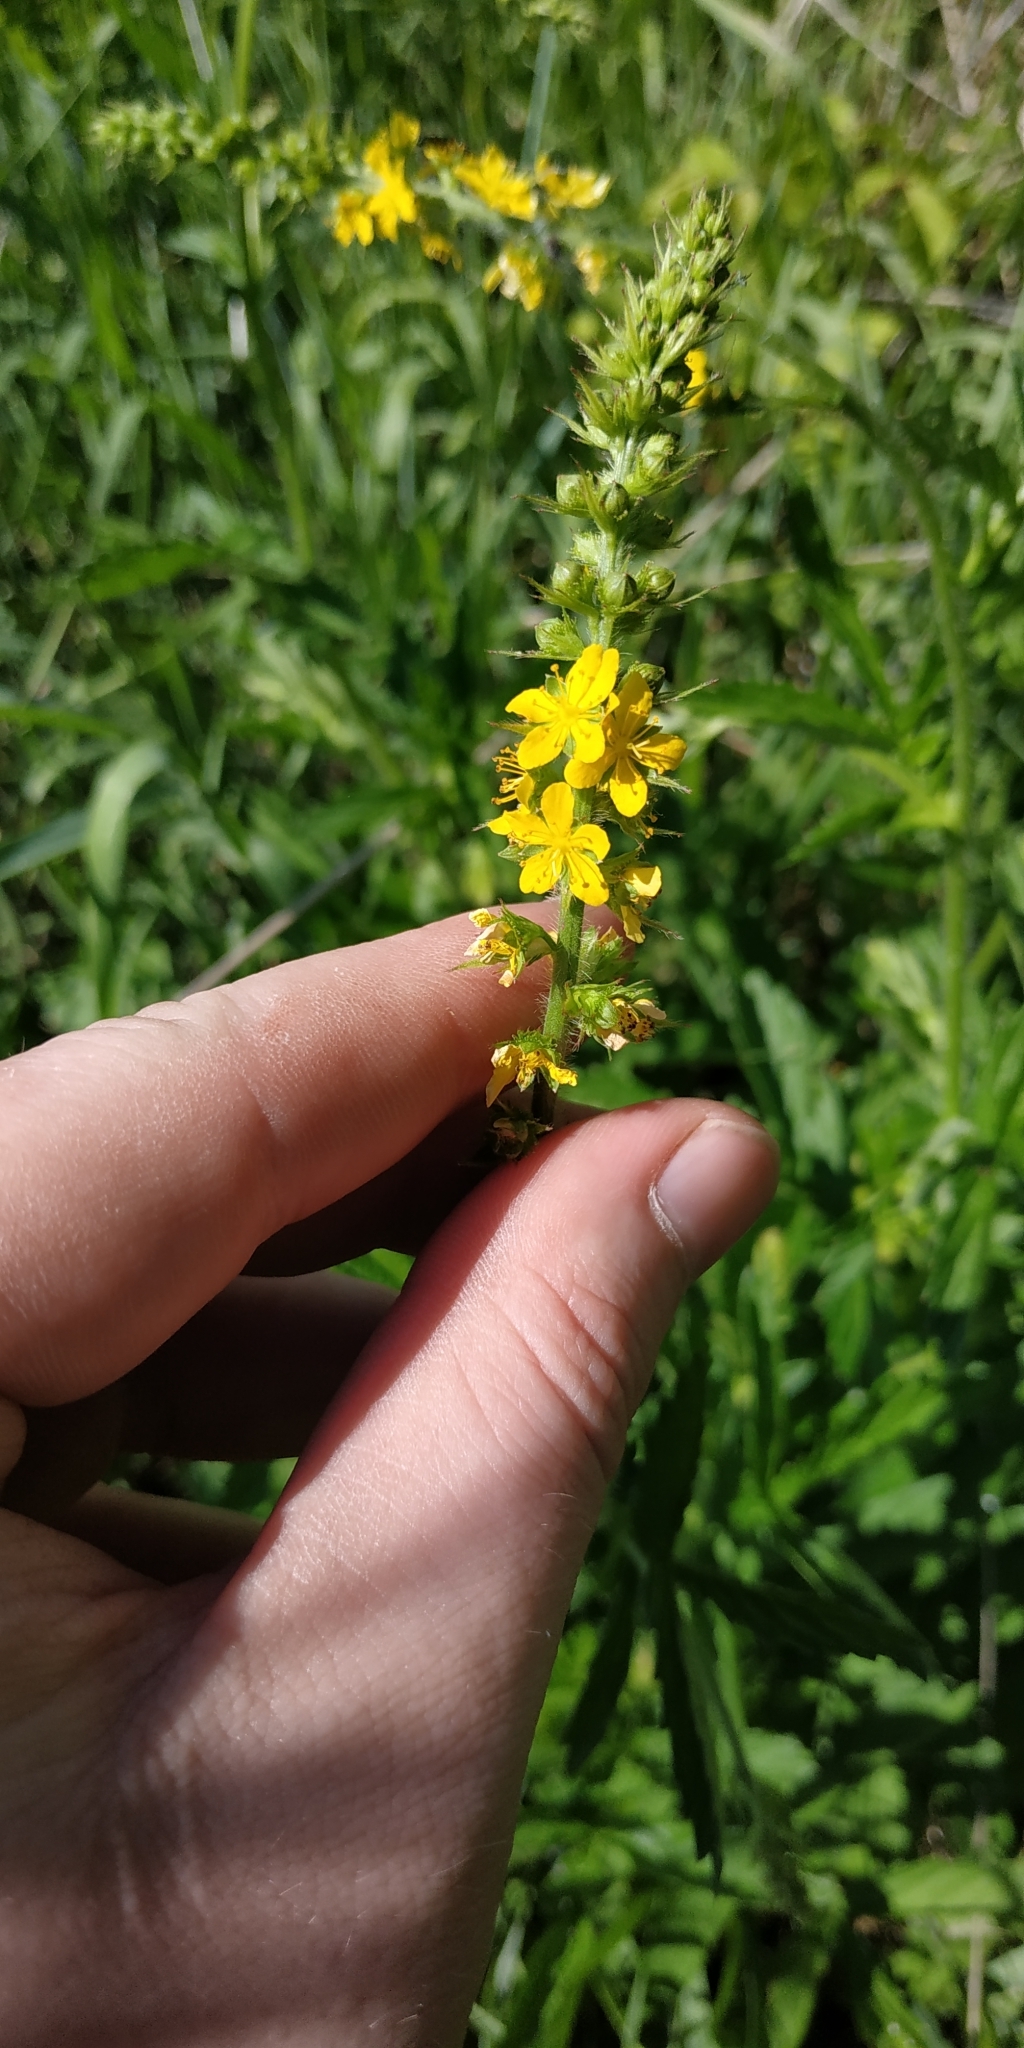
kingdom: Plantae
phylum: Tracheophyta
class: Magnoliopsida
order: Rosales
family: Rosaceae
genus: Agrimonia
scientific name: Agrimonia pilosa
